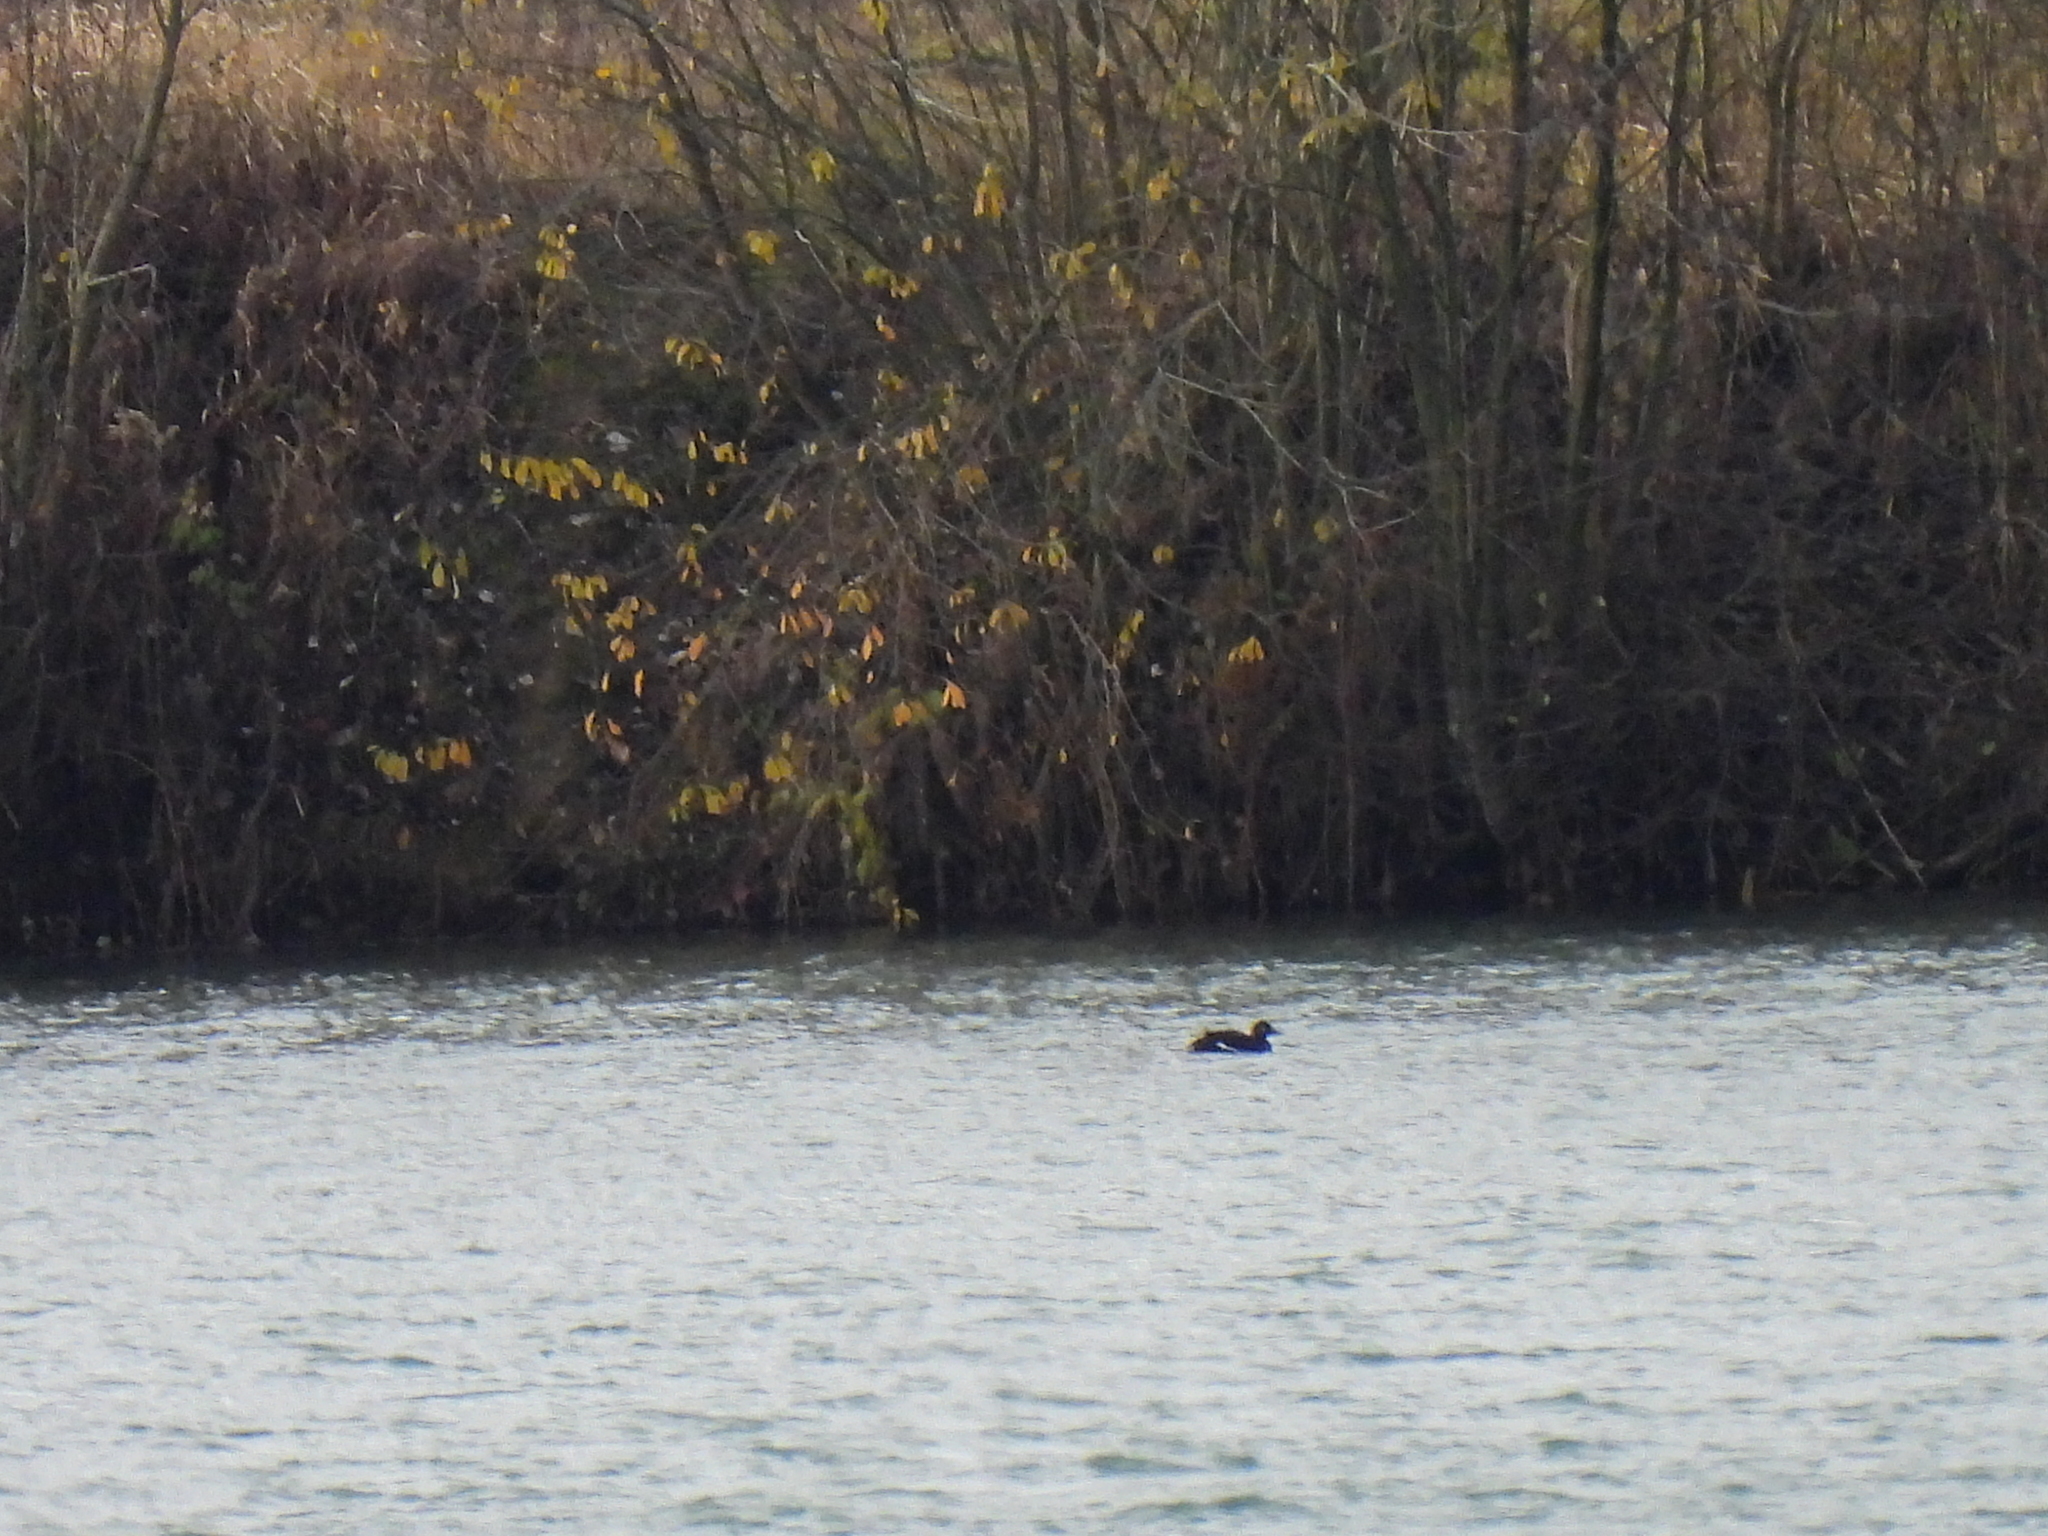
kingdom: Animalia
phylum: Chordata
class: Aves
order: Anseriformes
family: Anatidae
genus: Melanitta
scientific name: Melanitta fusca
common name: Velvet scoter
